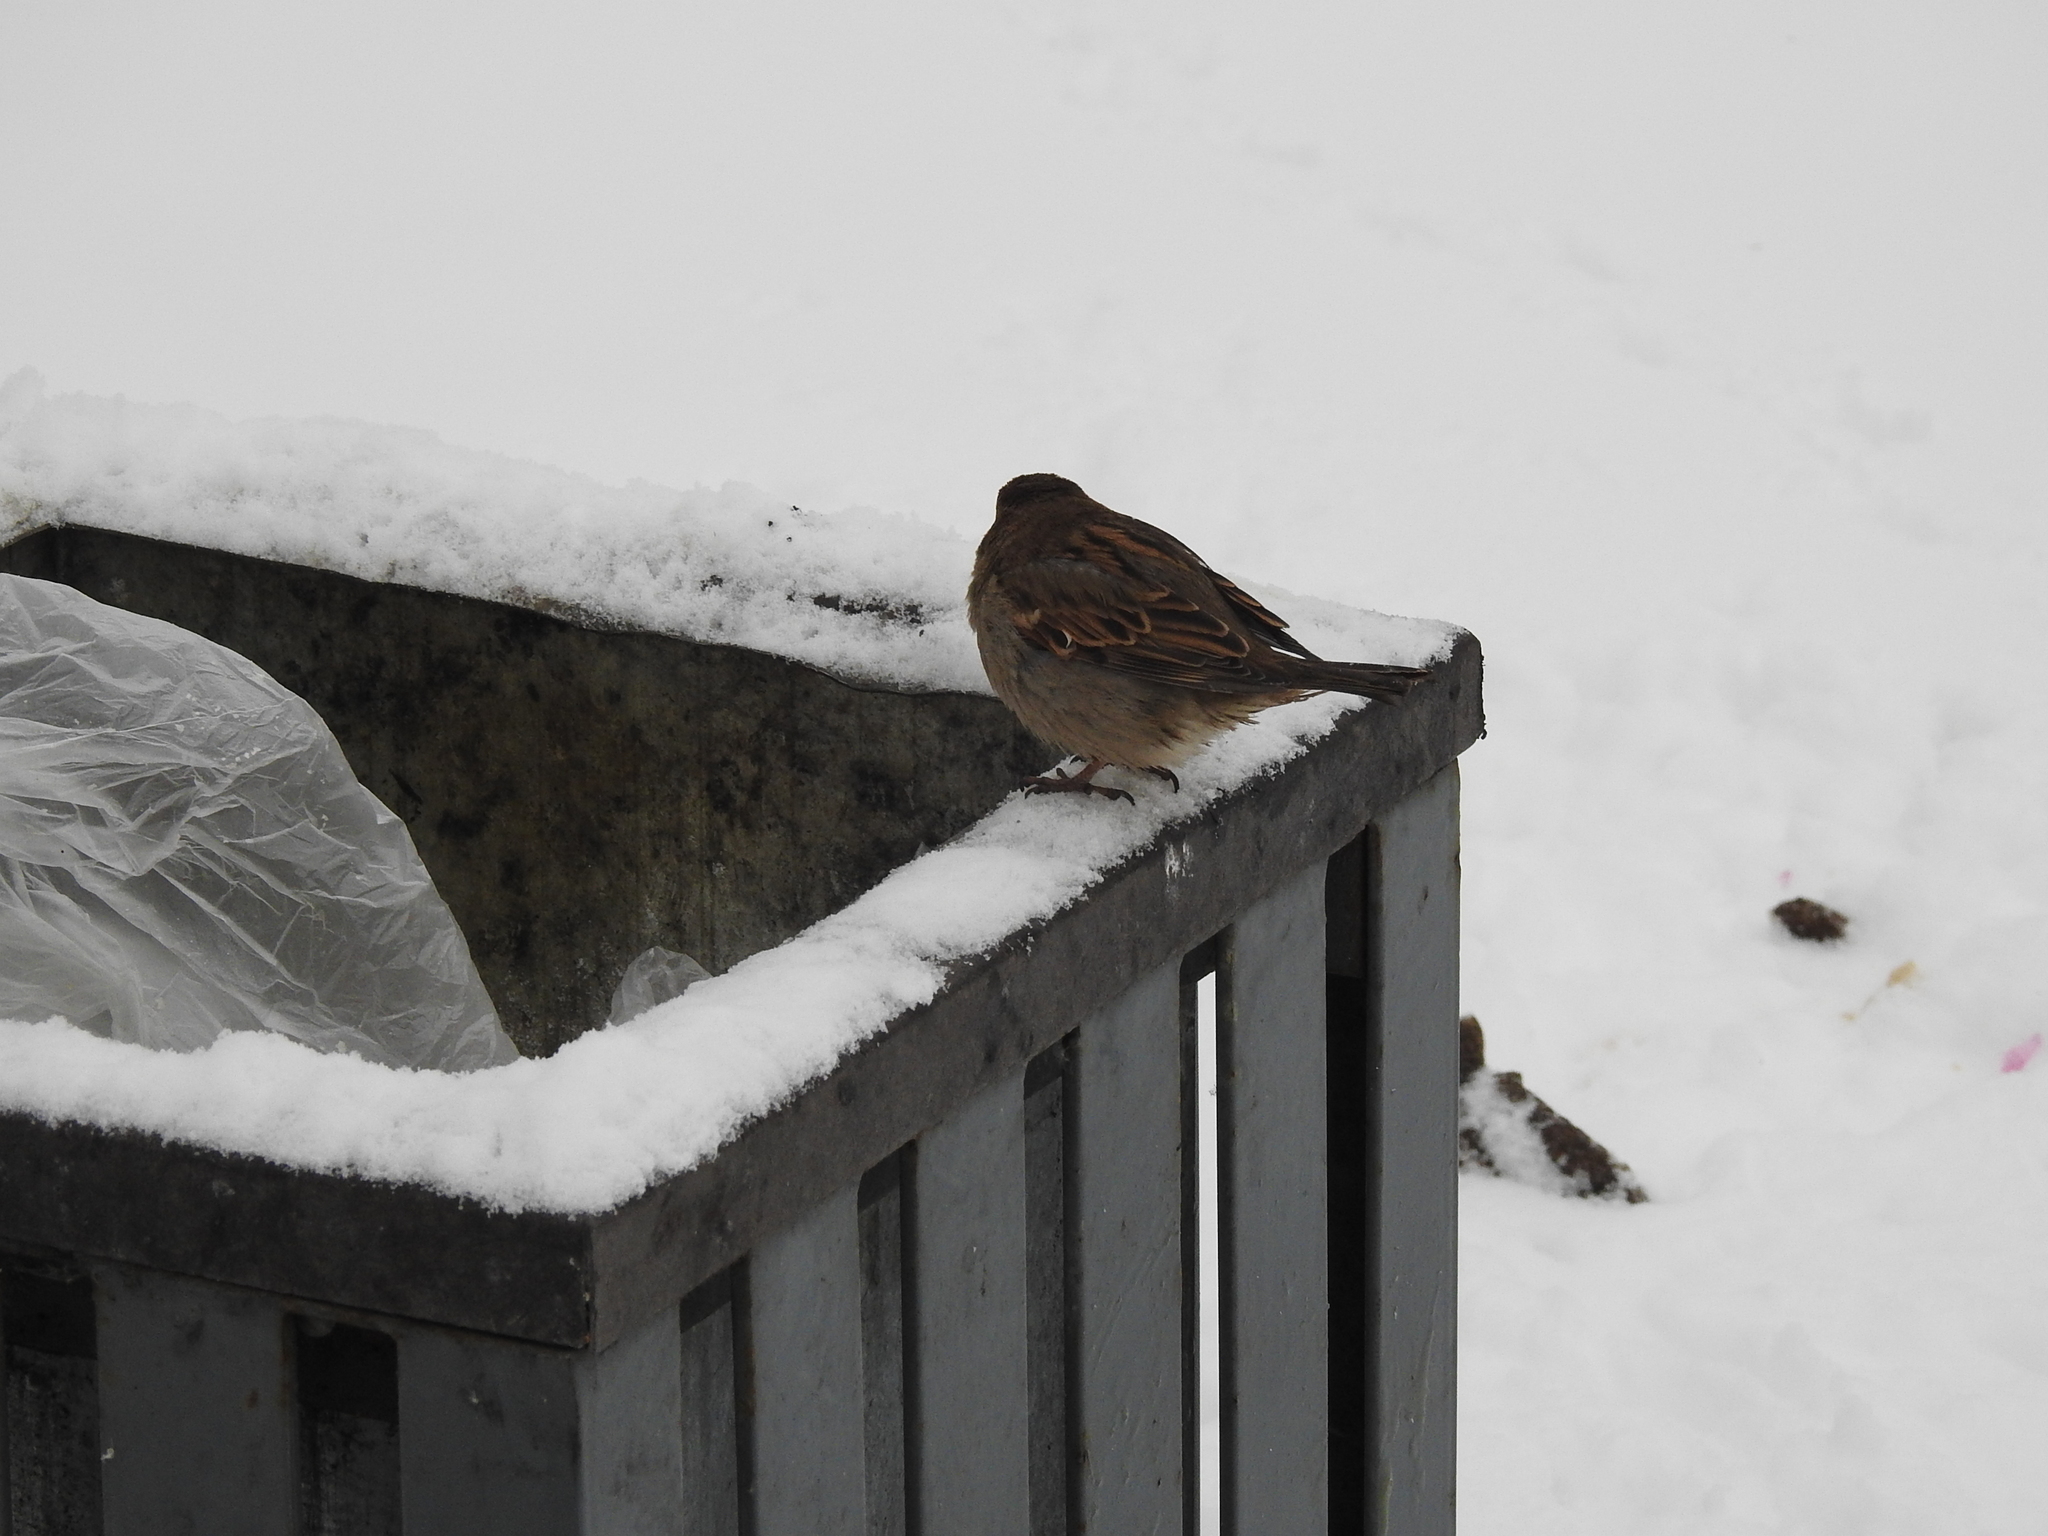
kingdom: Animalia
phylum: Chordata
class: Aves
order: Passeriformes
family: Passeridae
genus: Passer
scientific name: Passer domesticus
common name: House sparrow
